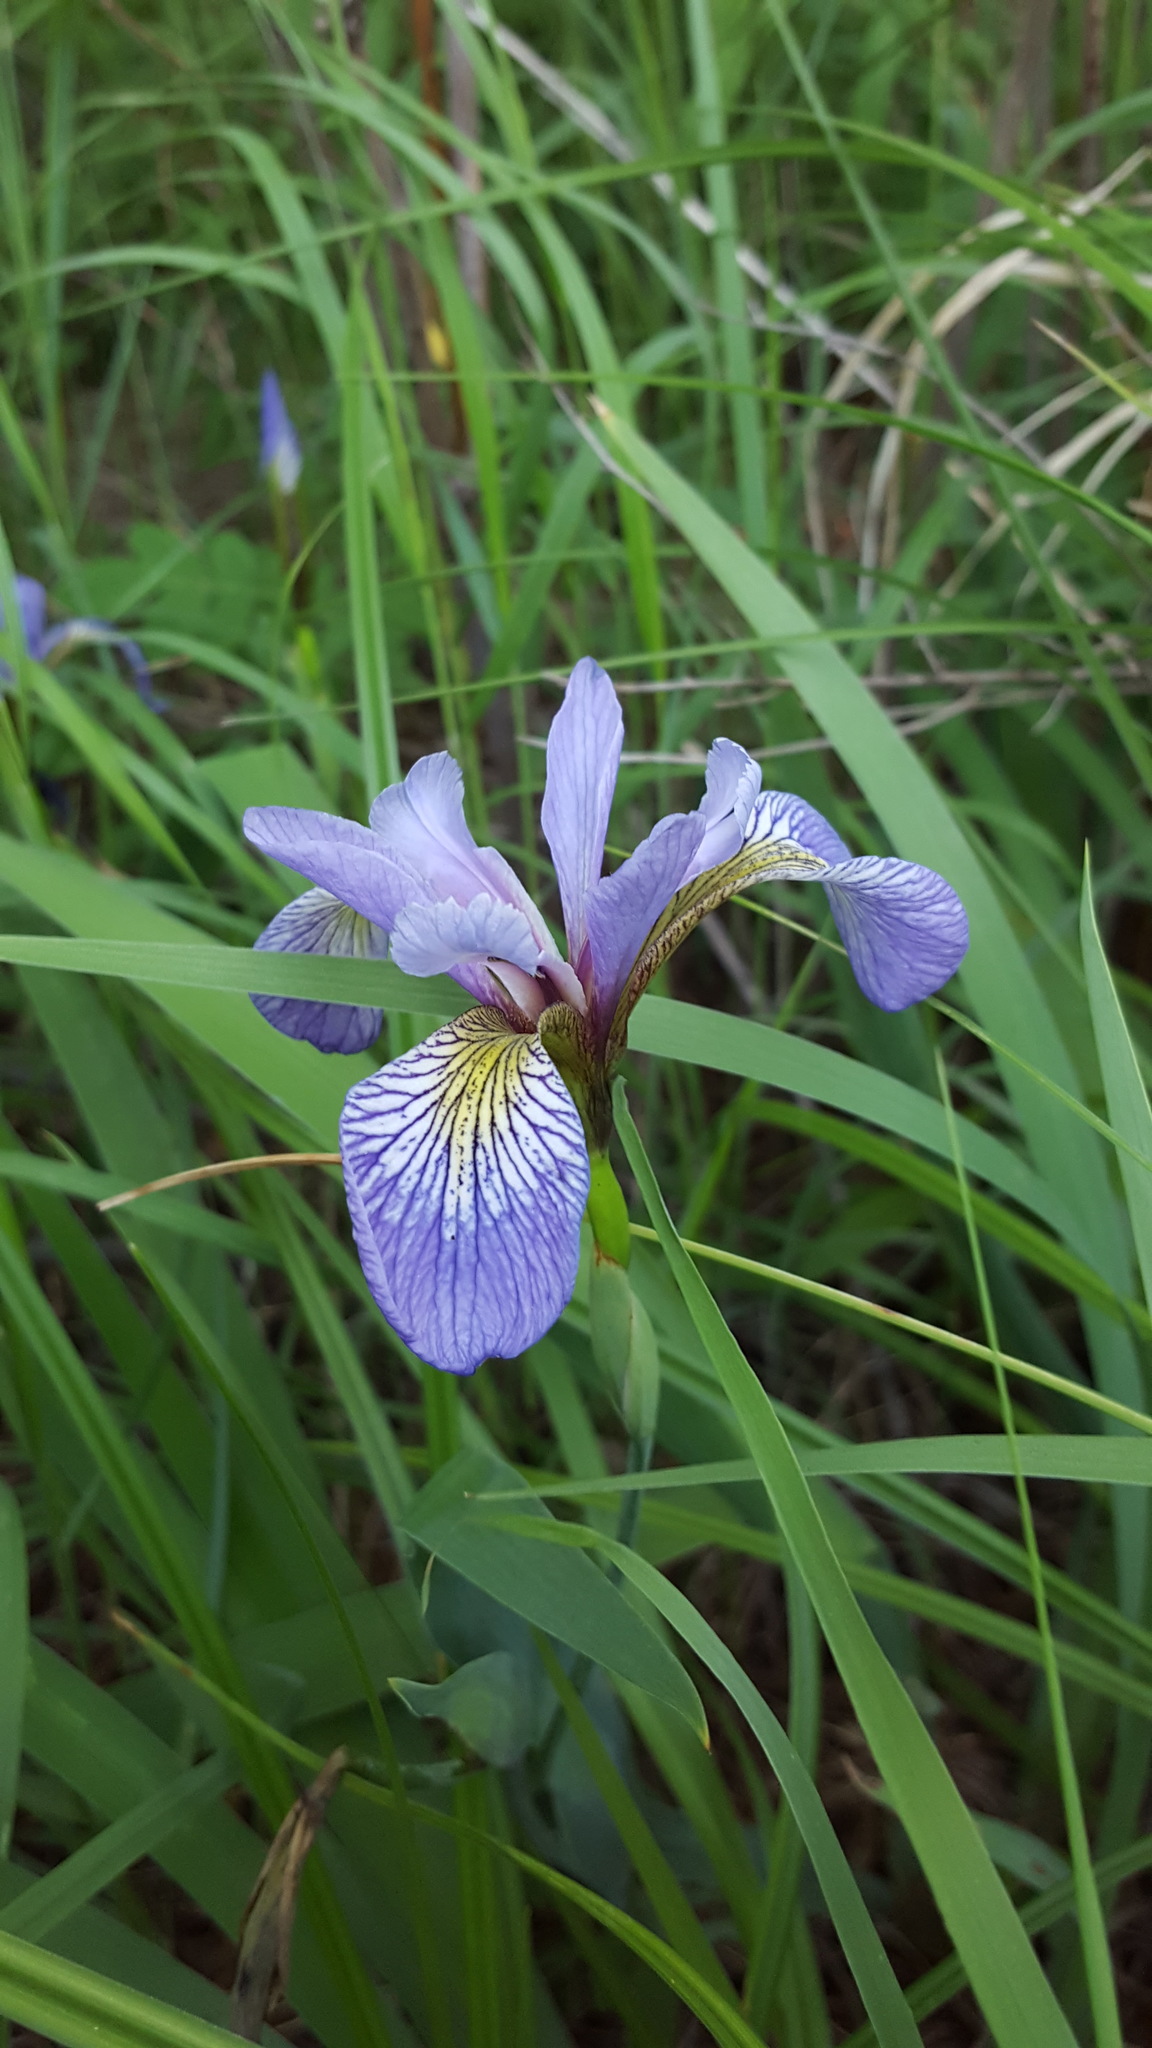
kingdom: Plantae
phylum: Tracheophyta
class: Liliopsida
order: Asparagales
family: Iridaceae
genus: Iris
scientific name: Iris versicolor
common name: Purple iris
